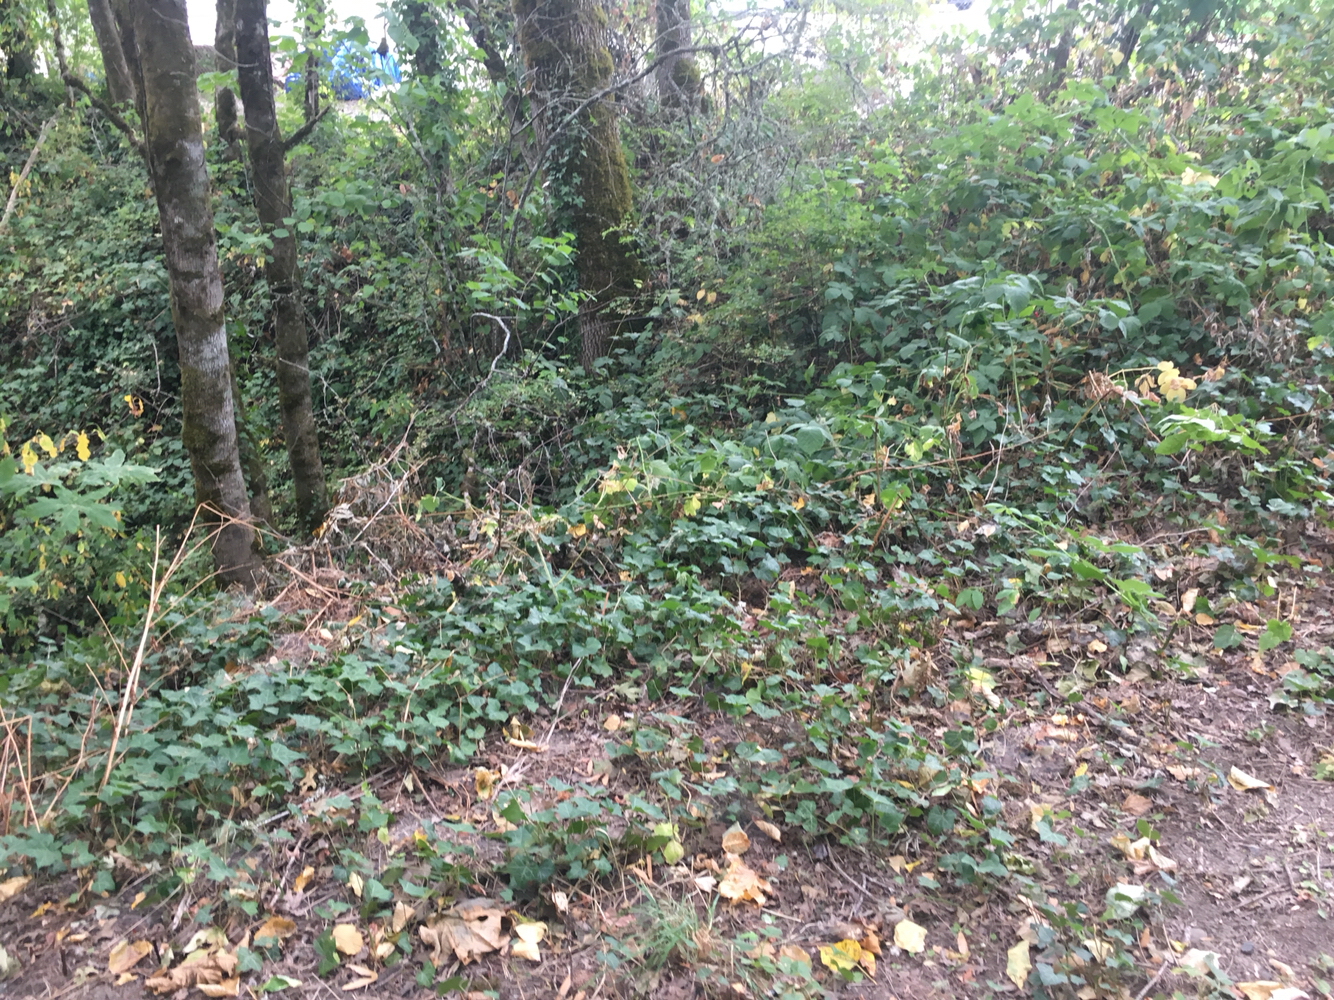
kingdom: Plantae
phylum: Tracheophyta
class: Magnoliopsida
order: Apiales
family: Araliaceae
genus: Hedera
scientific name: Hedera helix
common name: Ivy
